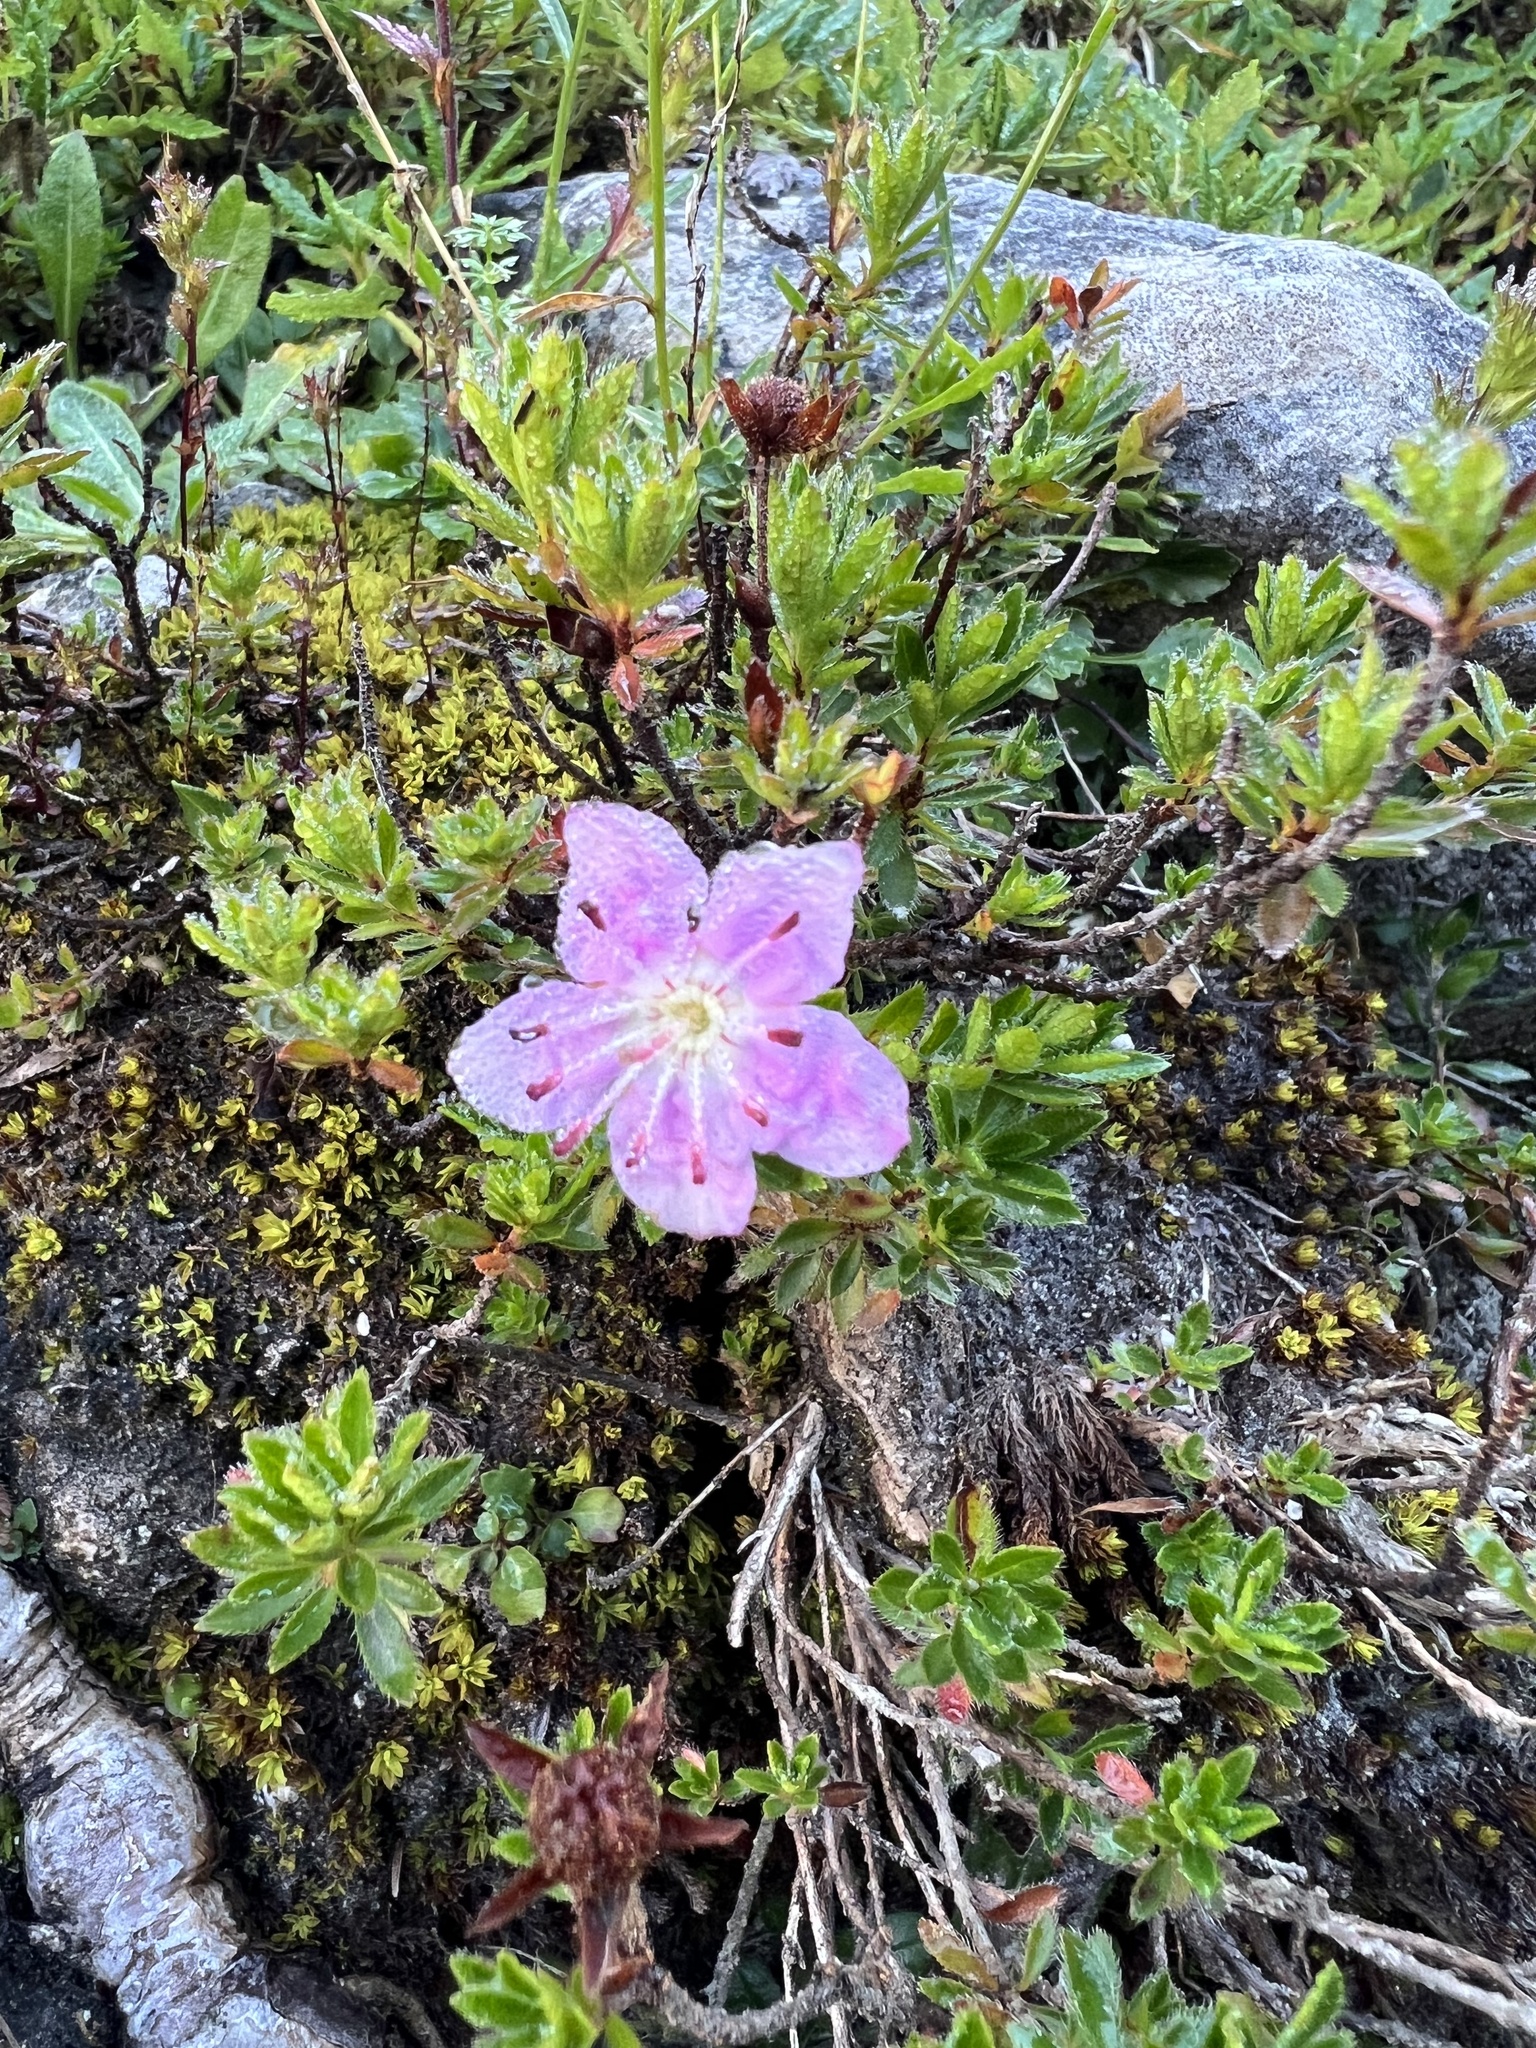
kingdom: Plantae
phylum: Tracheophyta
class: Magnoliopsida
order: Ericales
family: Ericaceae
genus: Rhodothamnus
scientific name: Rhodothamnus chamaecistus
